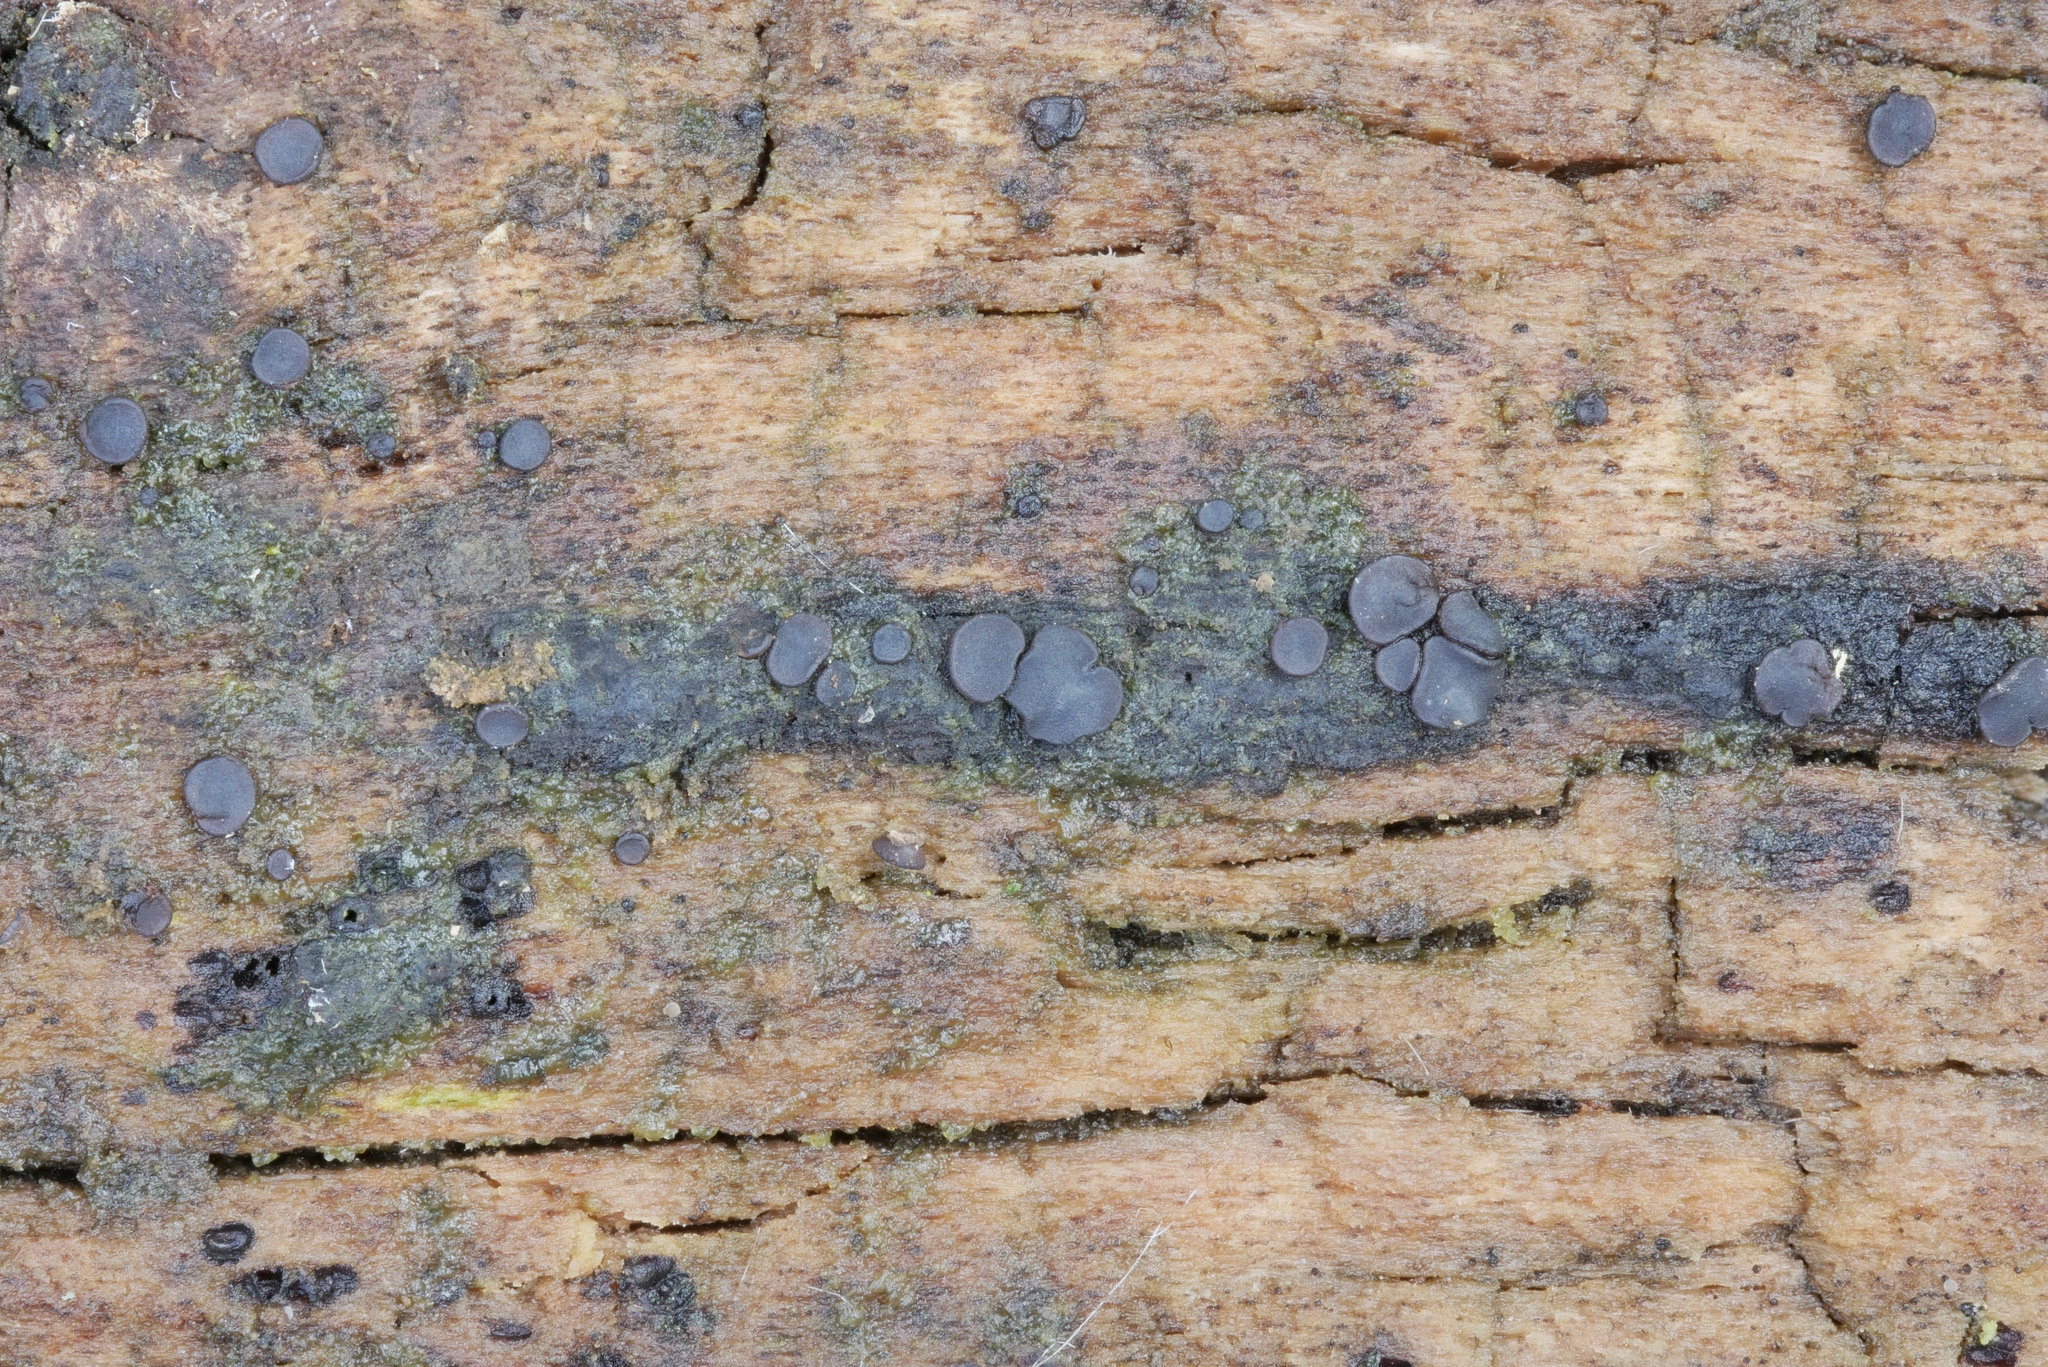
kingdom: Fungi
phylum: Ascomycota
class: Eurotiomycetes
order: Sclerococcales
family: Sclerococcaceae
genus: Sclerococcum
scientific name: Sclerococcum stygium
